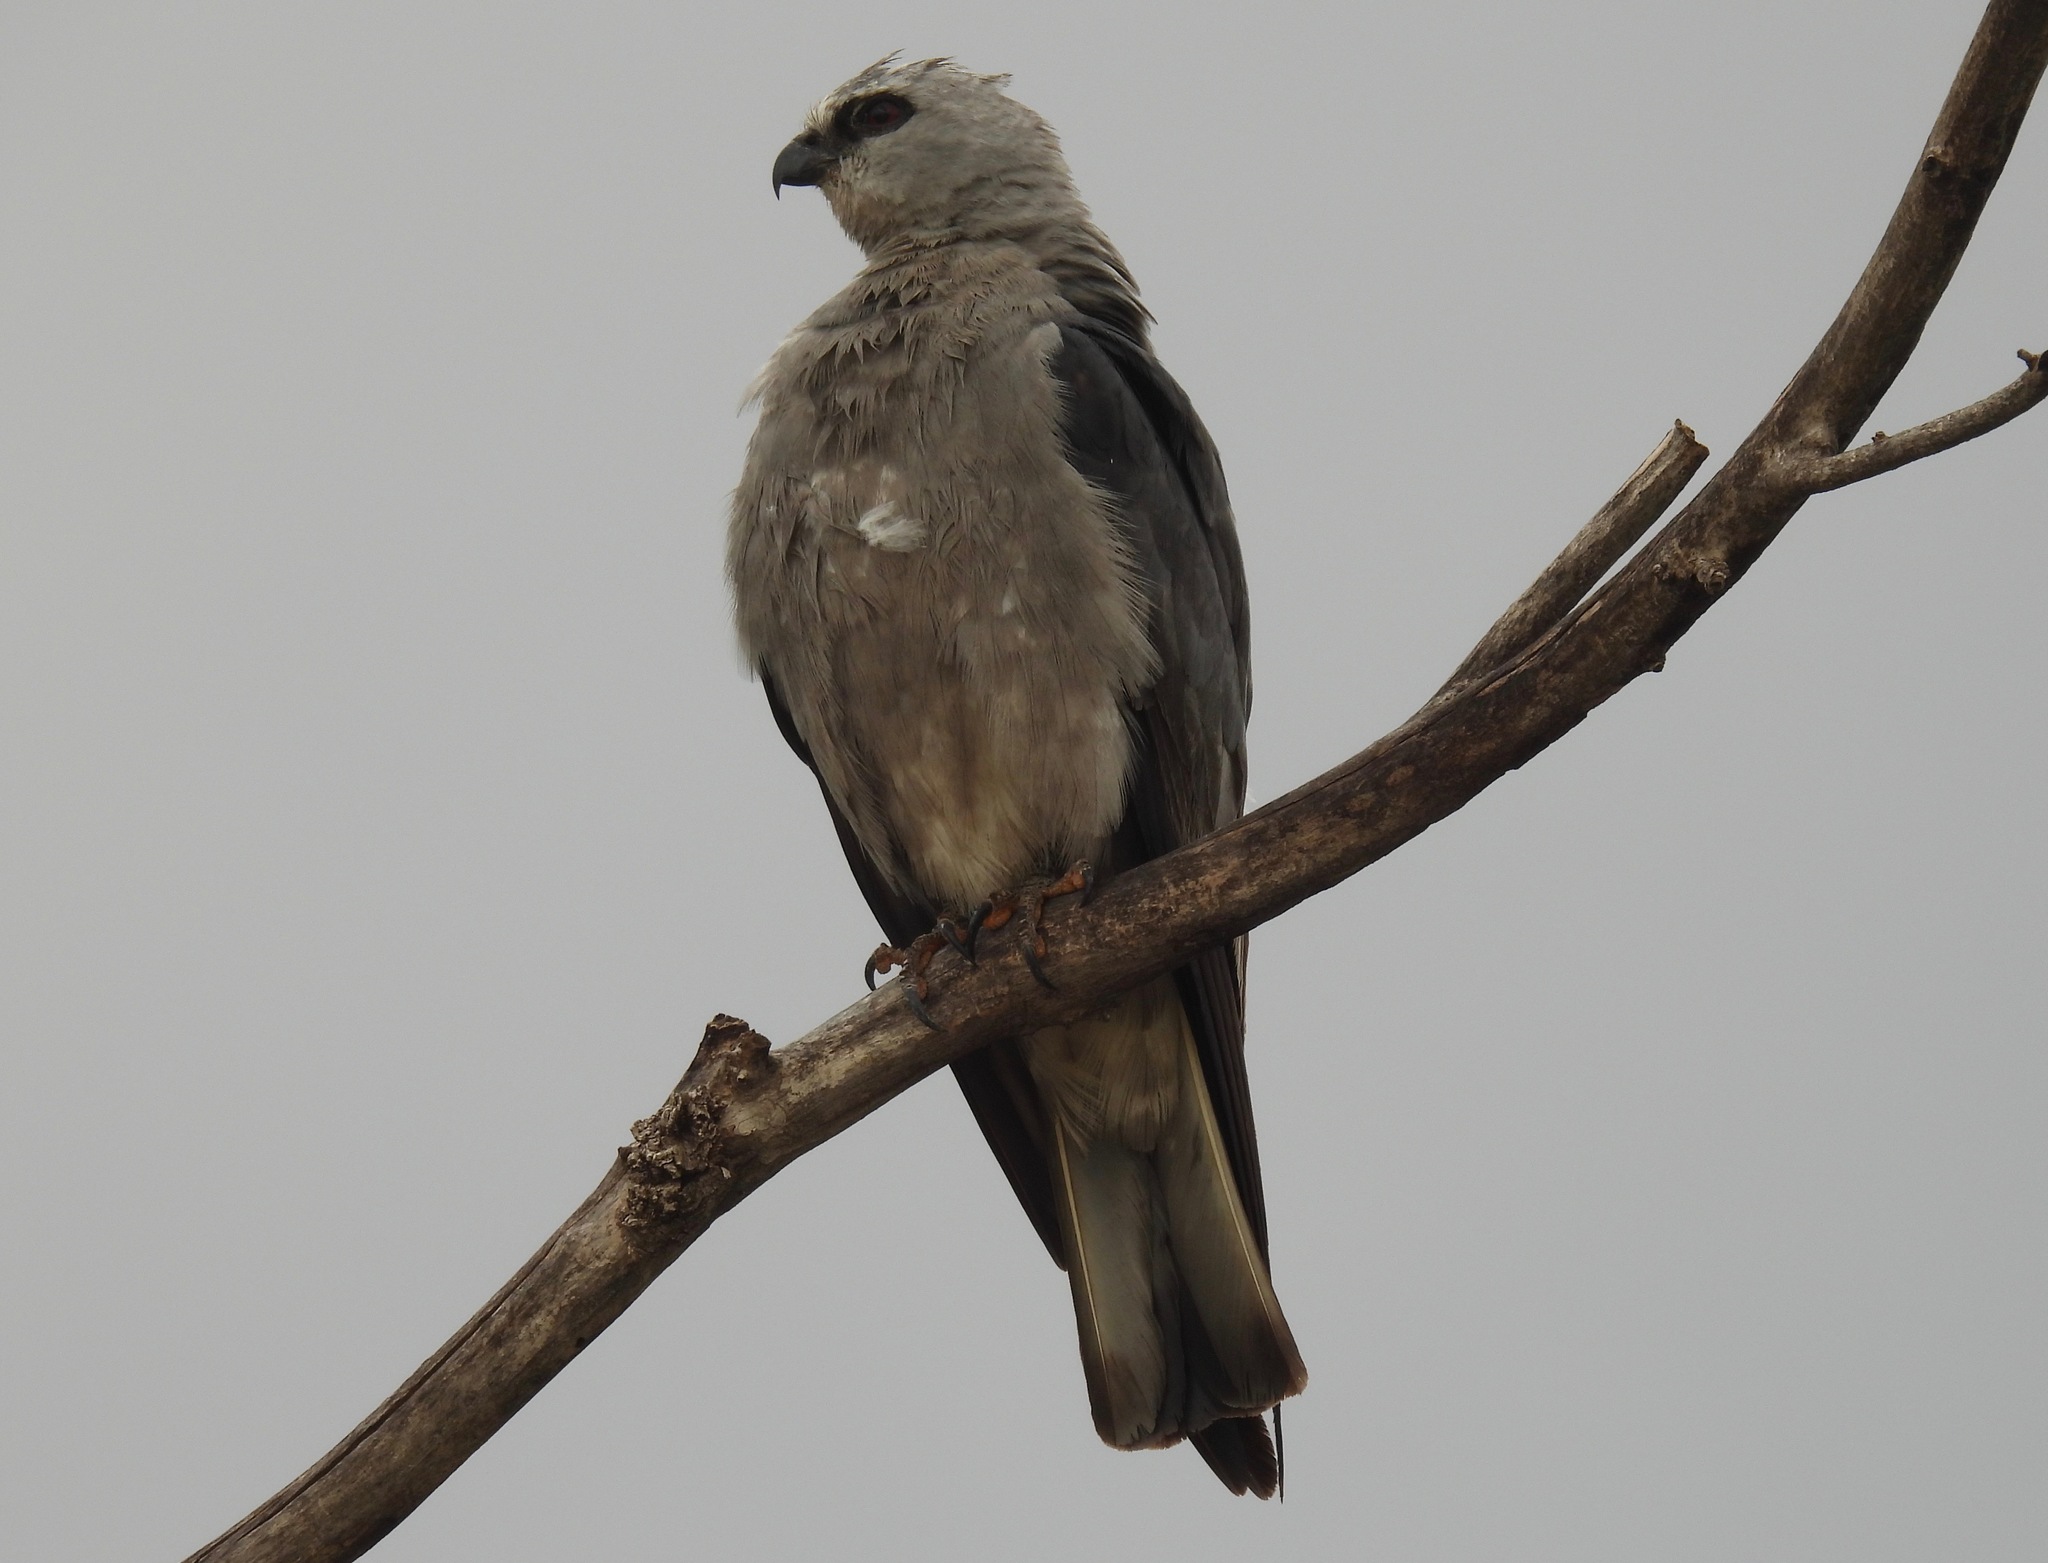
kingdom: Animalia
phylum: Chordata
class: Aves
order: Accipitriformes
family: Accipitridae
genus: Ictinia
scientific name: Ictinia mississippiensis
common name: Mississippi kite
